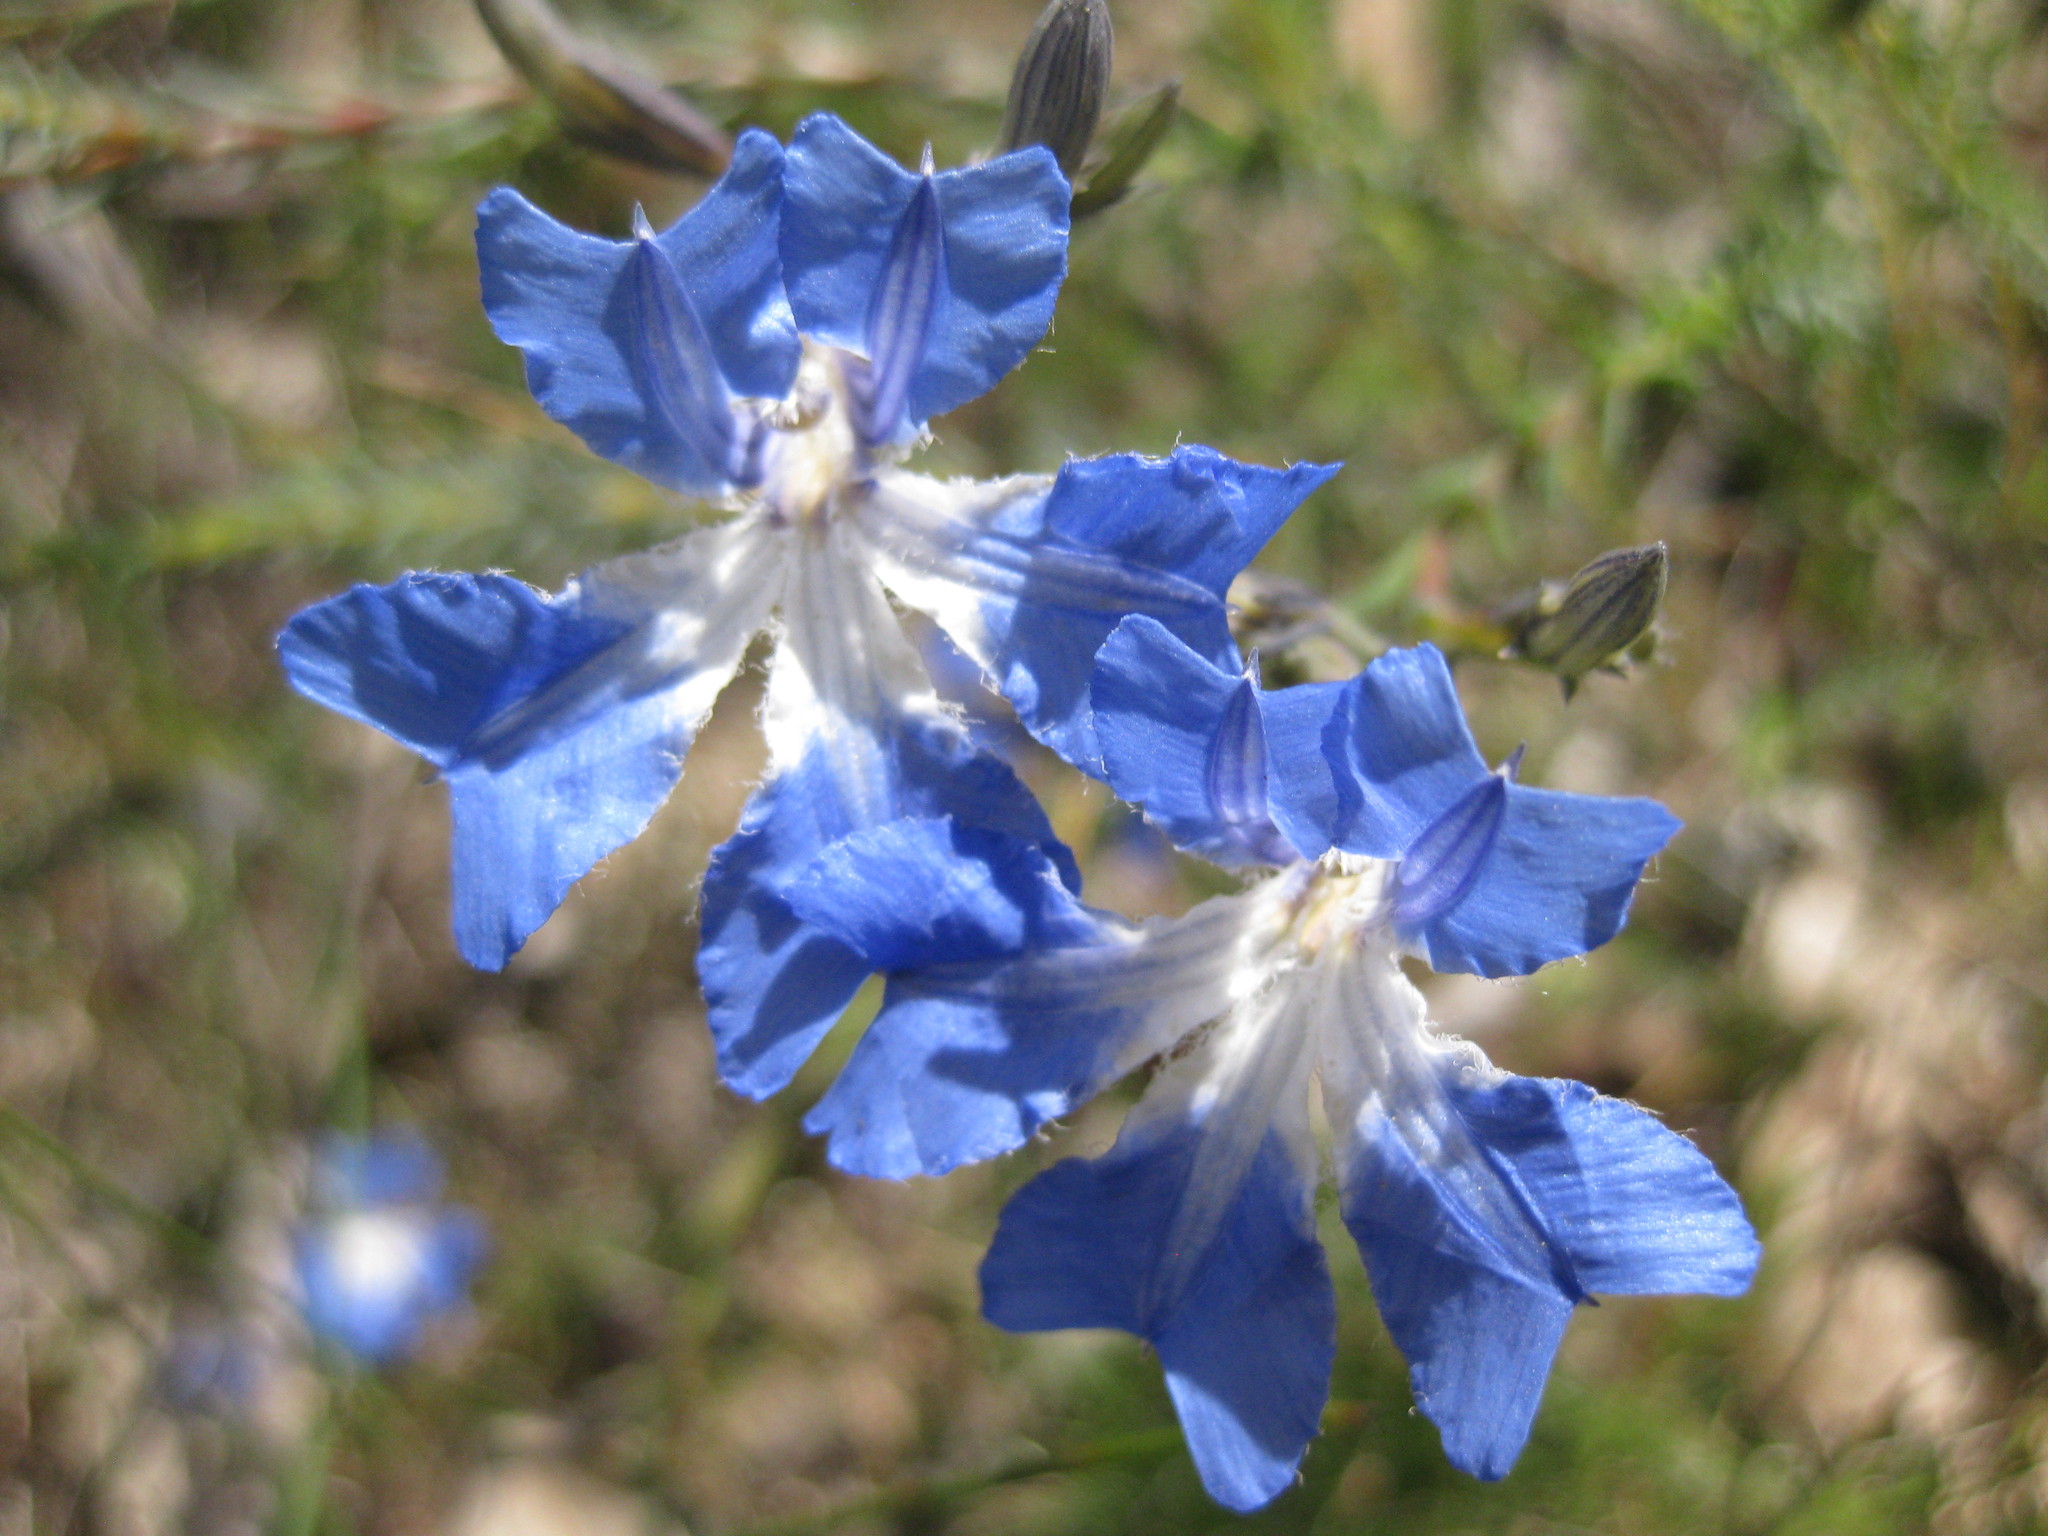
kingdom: Plantae
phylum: Tracheophyta
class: Magnoliopsida
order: Asterales
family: Goodeniaceae
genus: Lechenaultia
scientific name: Lechenaultia biloba
